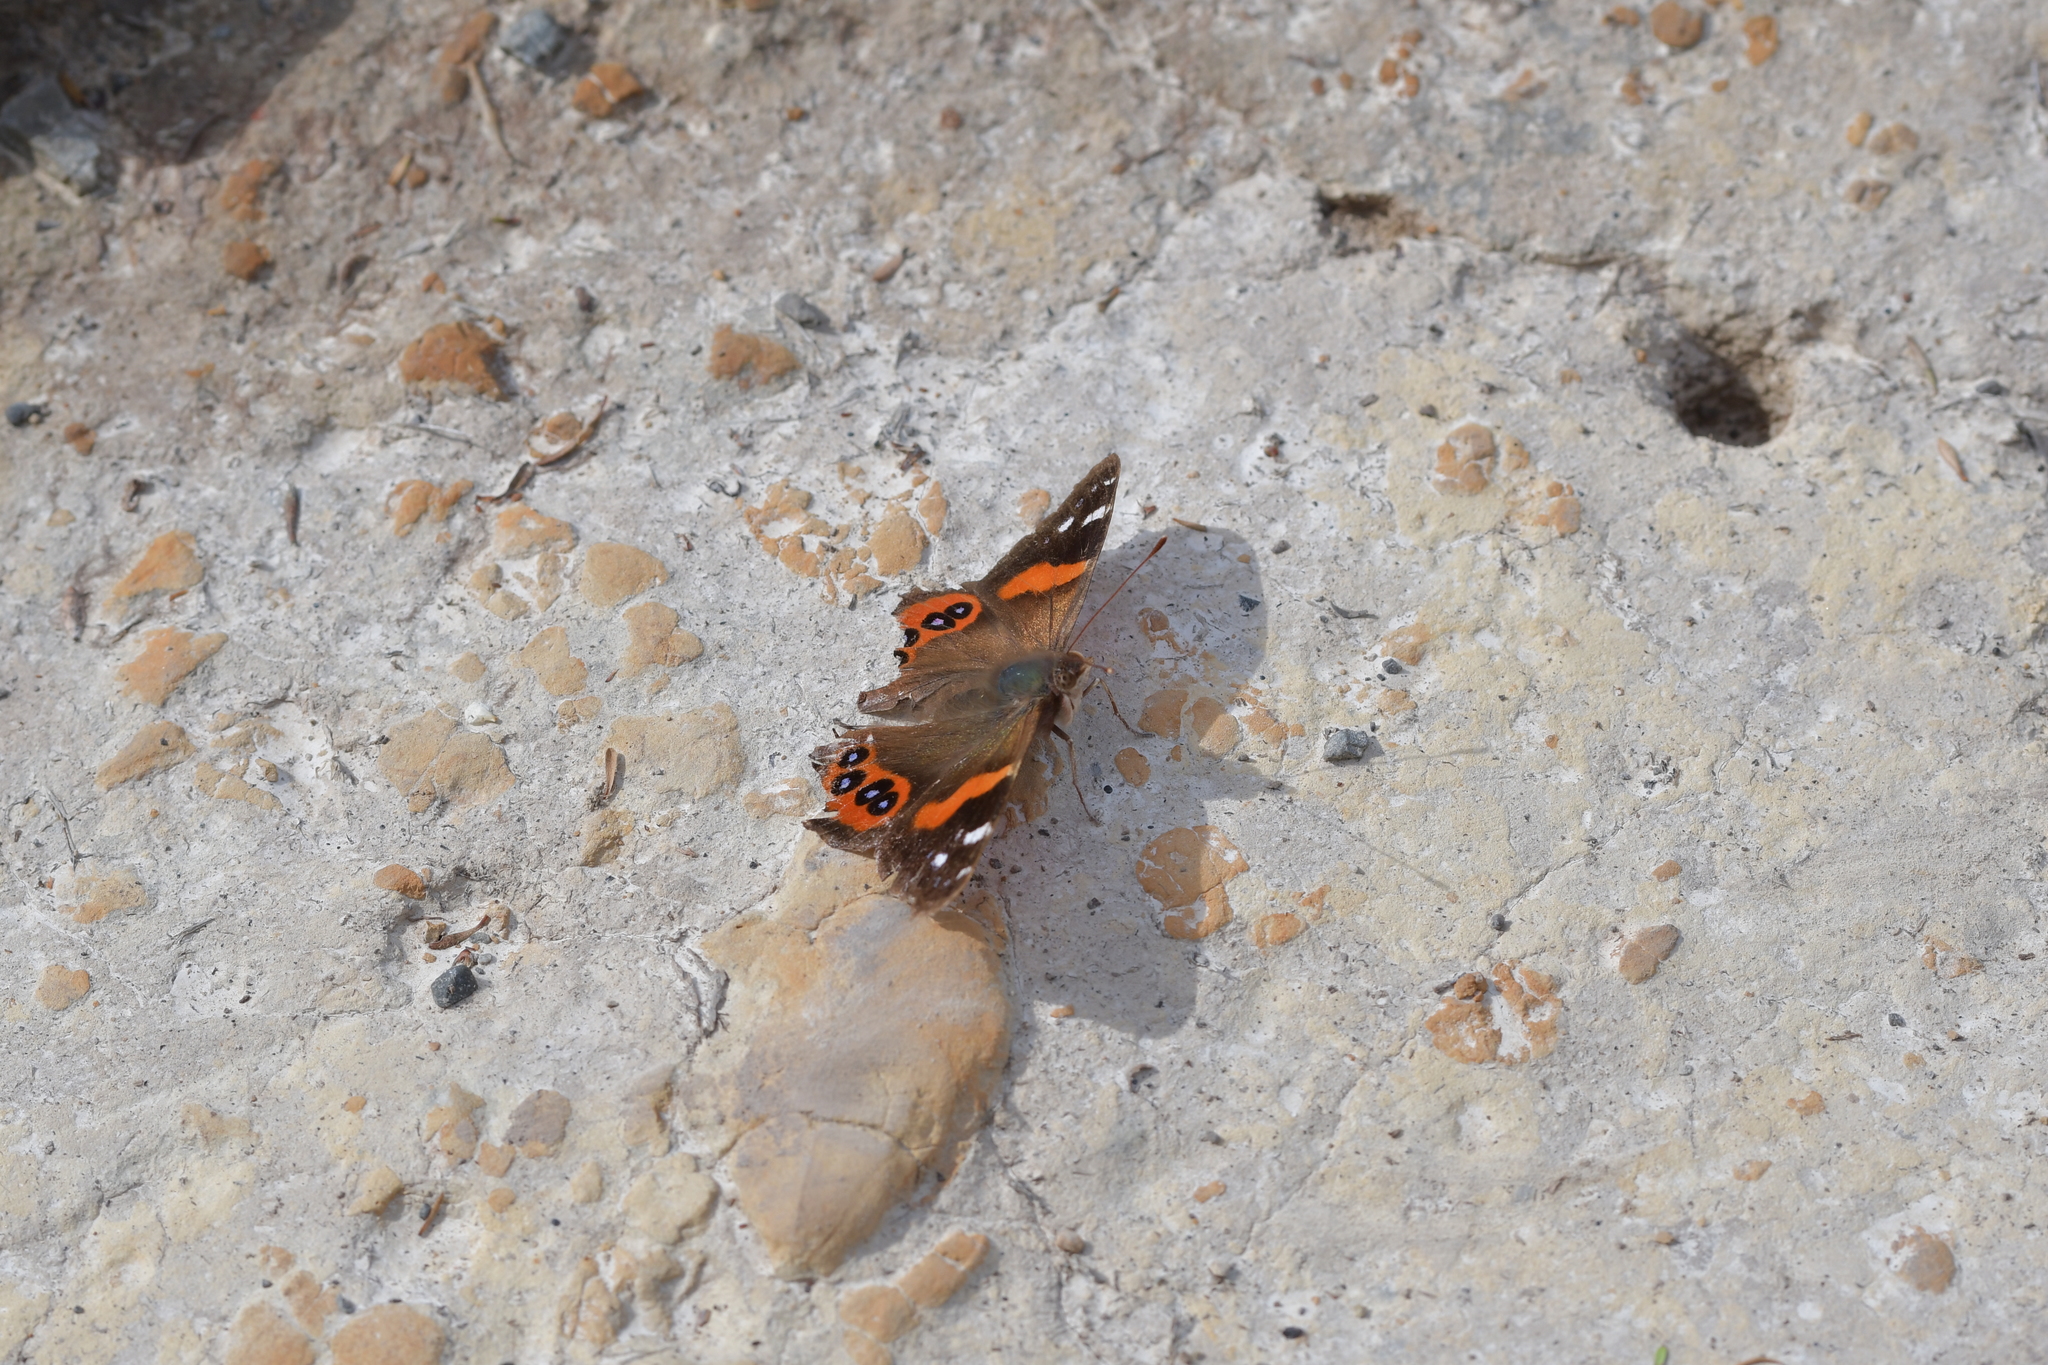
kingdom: Animalia
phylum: Arthropoda
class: Insecta
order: Lepidoptera
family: Nymphalidae
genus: Vanessa
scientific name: Vanessa gonerilla
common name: New zealand red admiral
